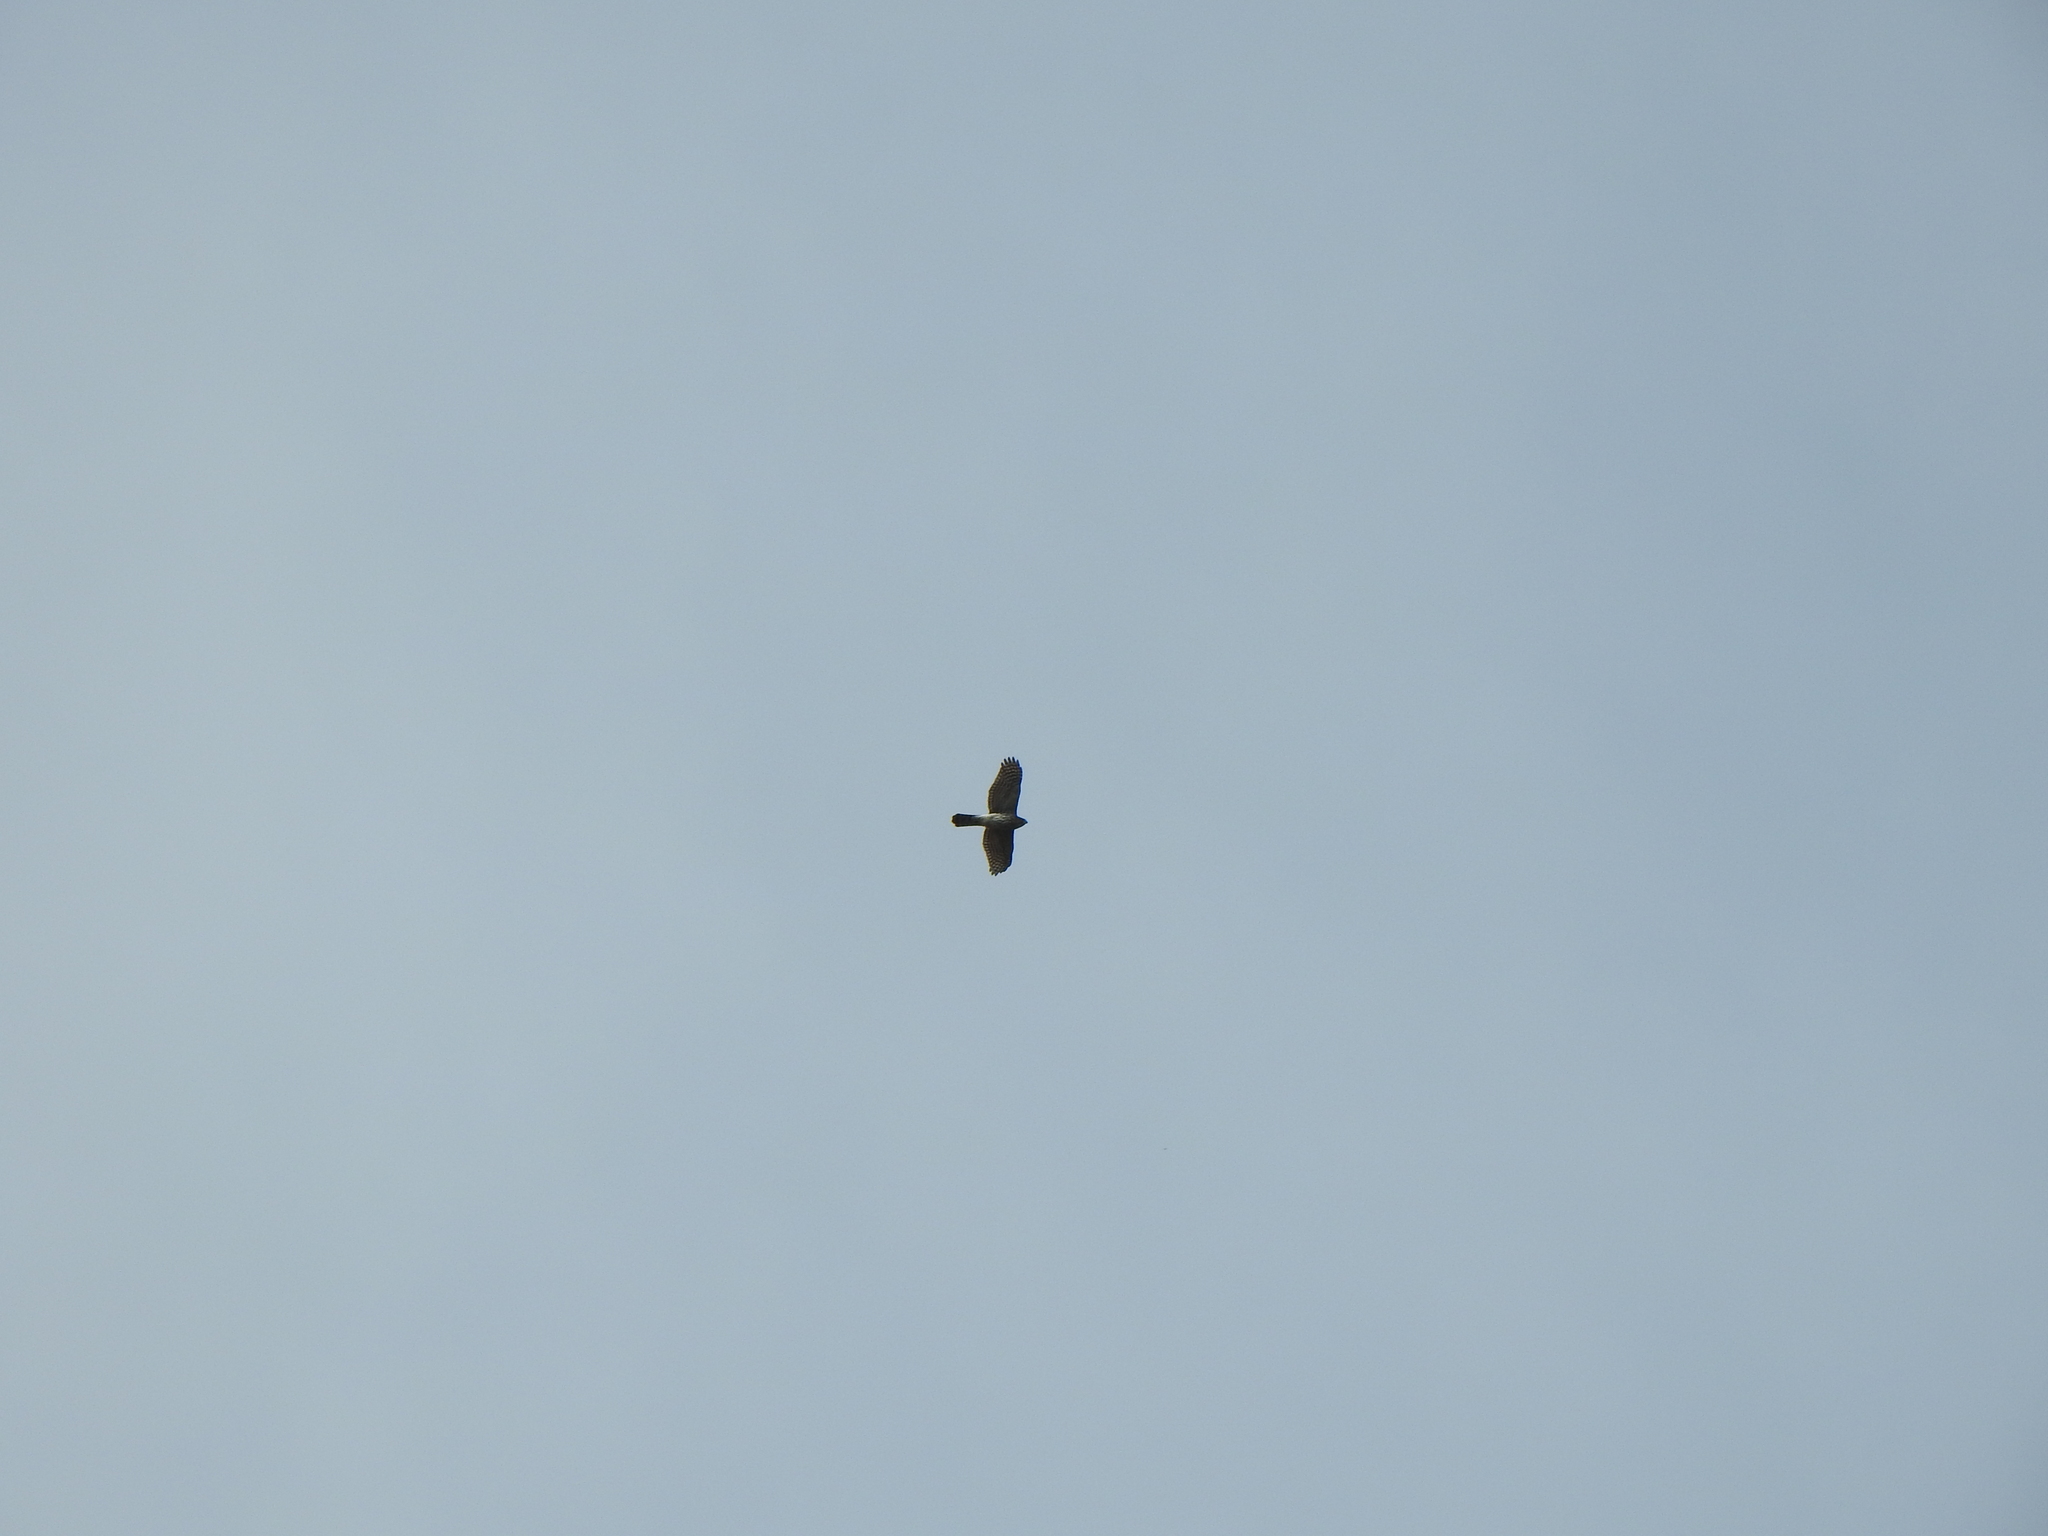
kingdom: Animalia
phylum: Chordata
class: Aves
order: Accipitriformes
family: Accipitridae
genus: Accipiter
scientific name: Accipiter cooperii
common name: Cooper's hawk
